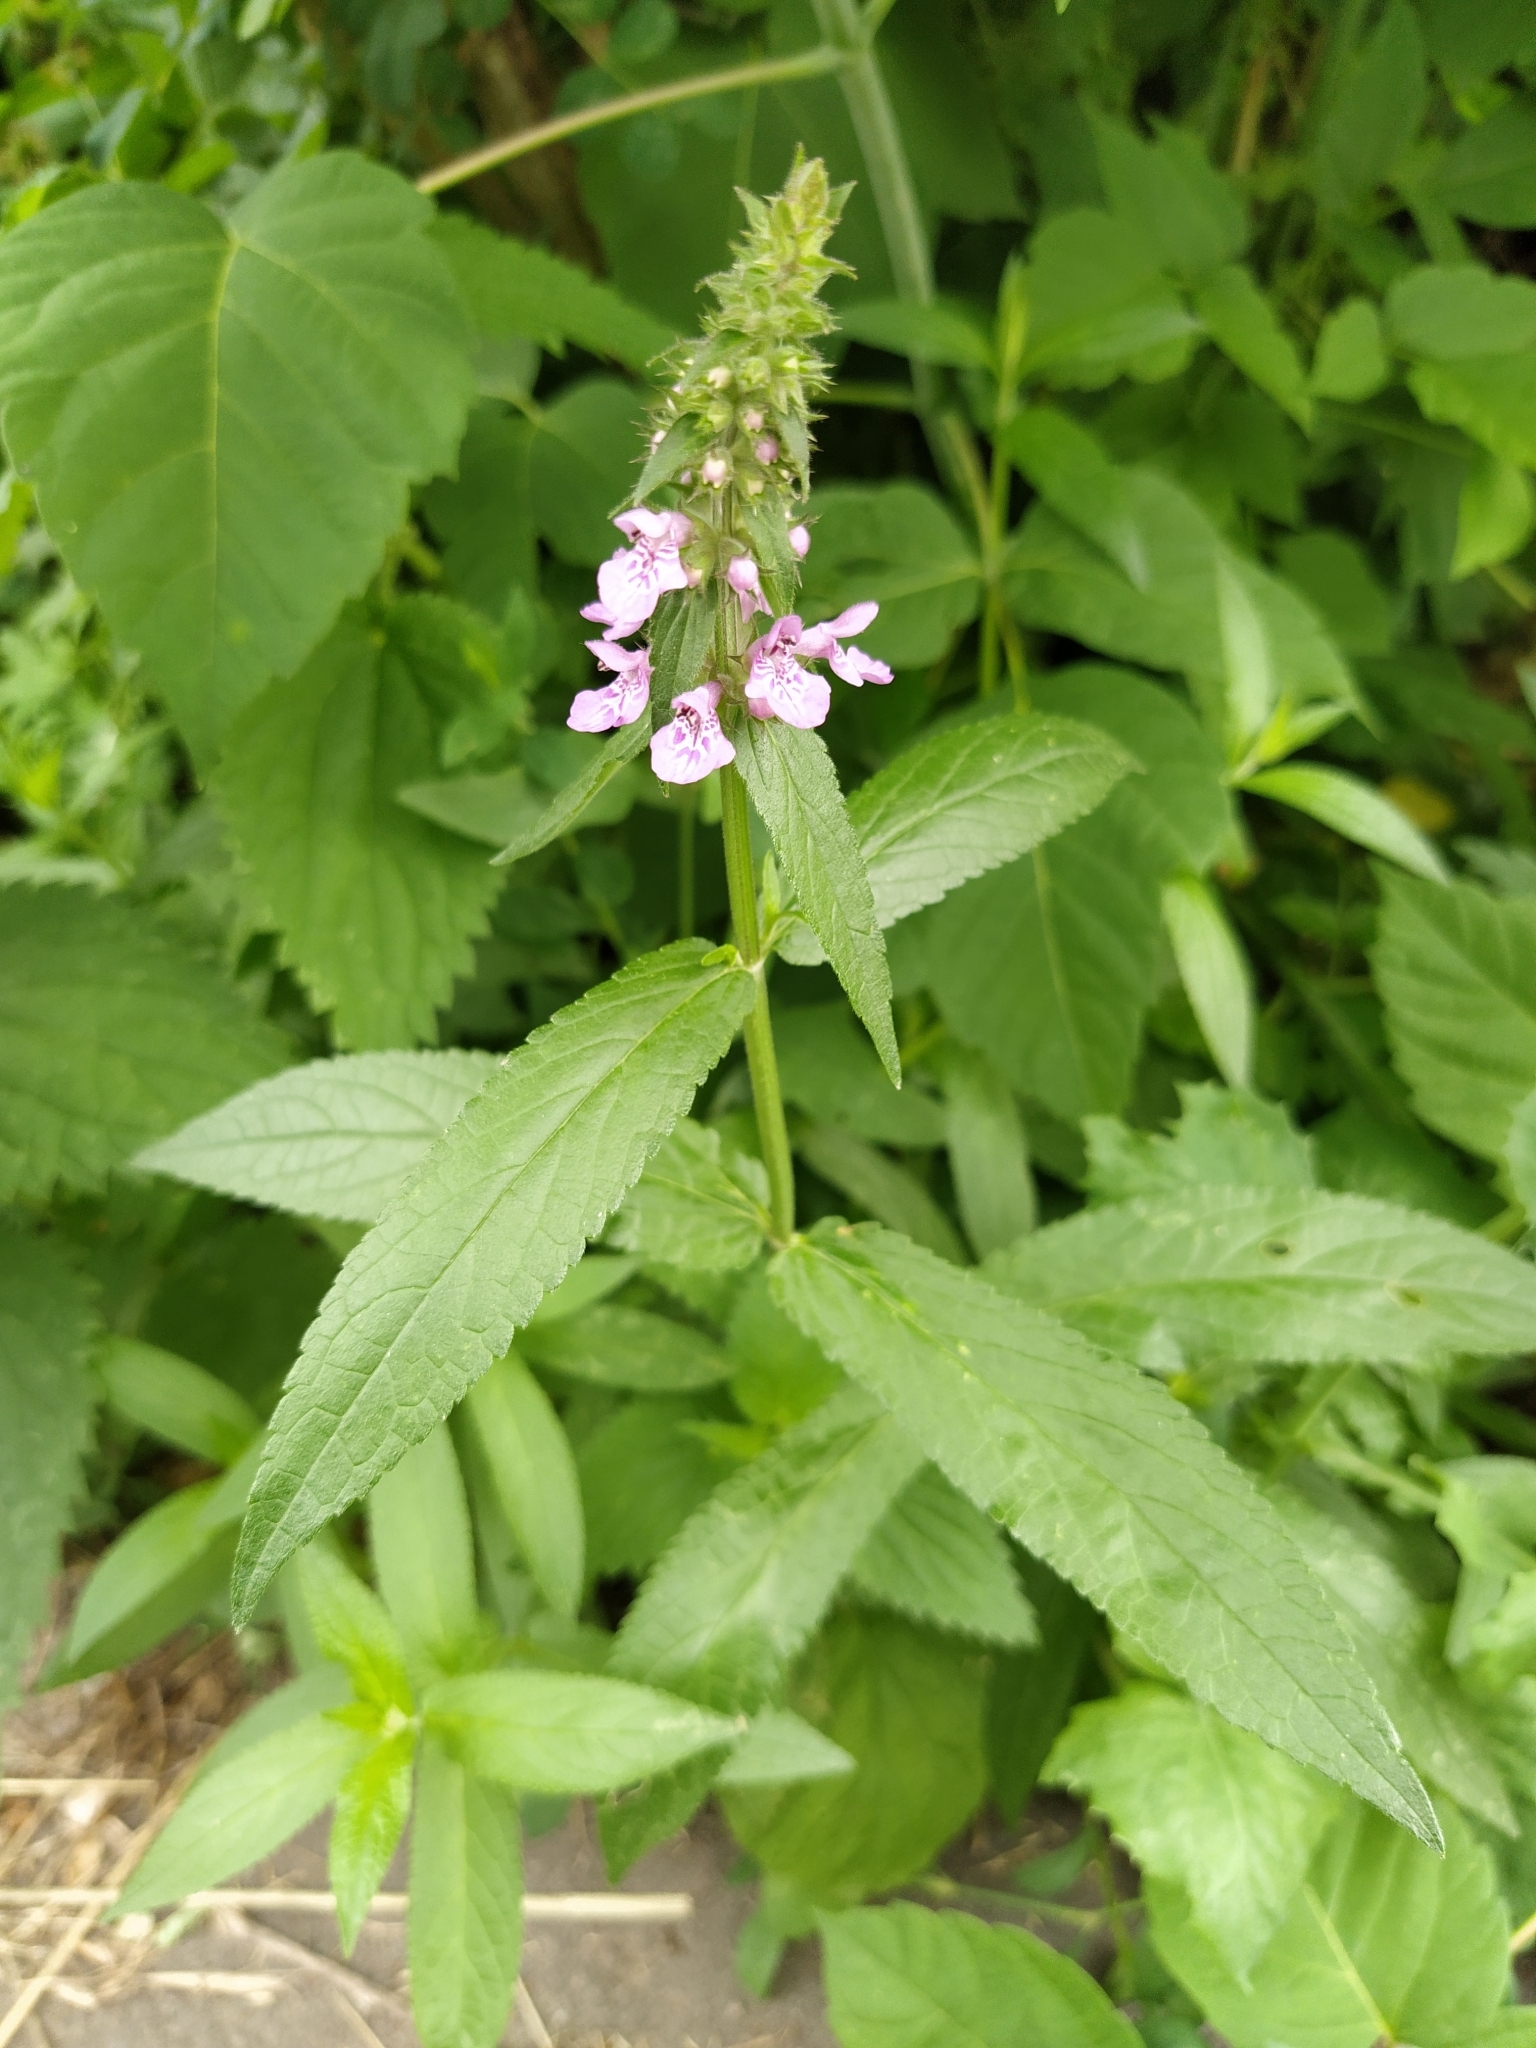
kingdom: Plantae
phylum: Tracheophyta
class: Magnoliopsida
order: Lamiales
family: Lamiaceae
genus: Stachys
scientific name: Stachys palustris
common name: Marsh woundwort
